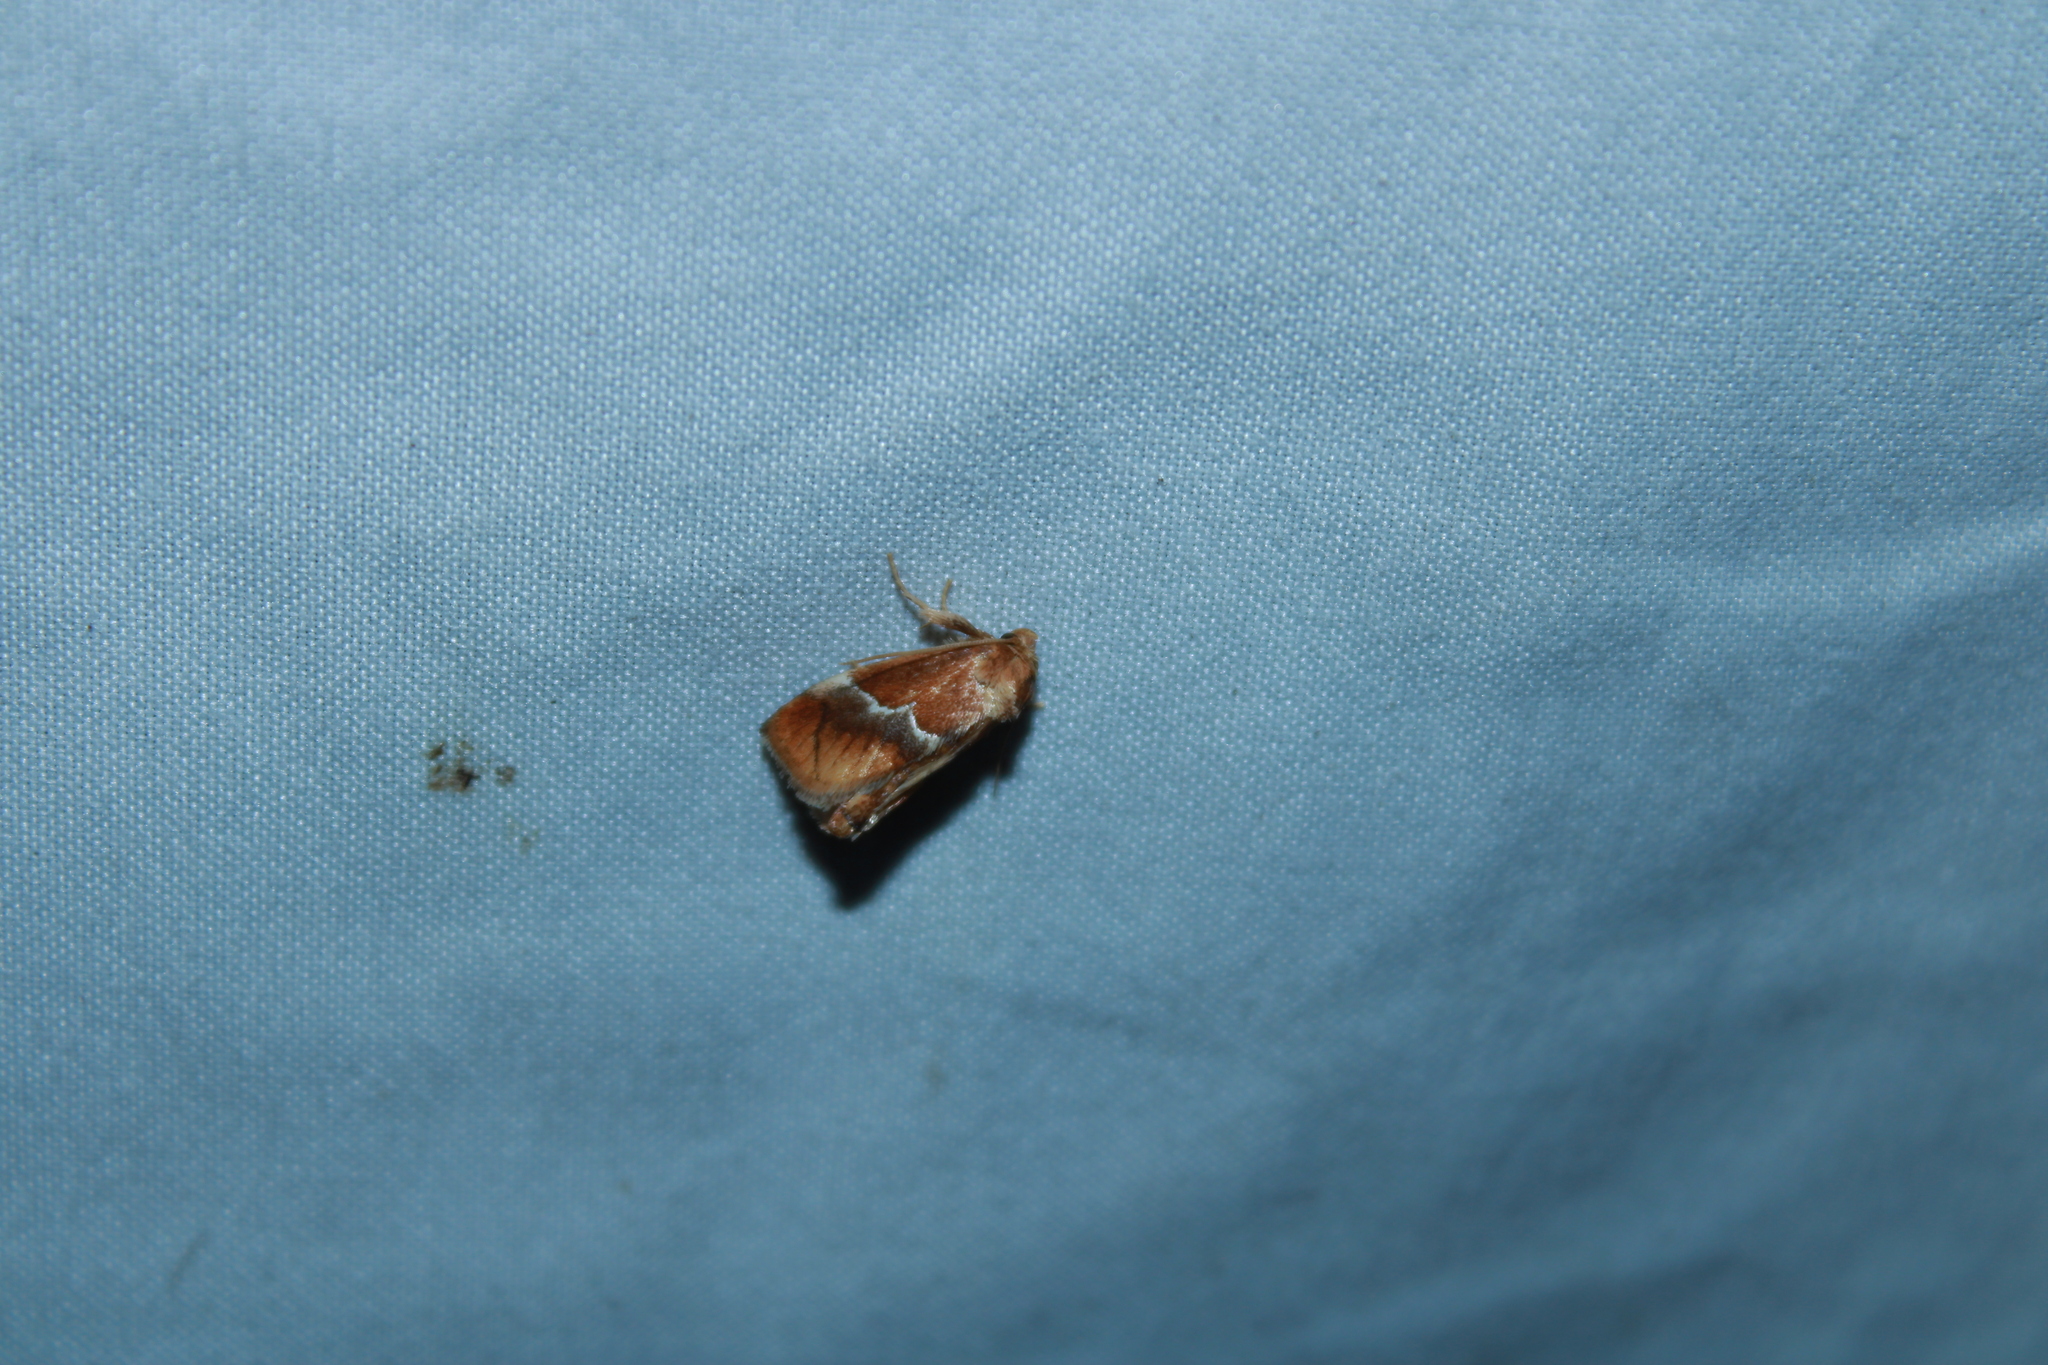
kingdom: Animalia
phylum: Arthropoda
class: Insecta
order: Lepidoptera
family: Limacodidae
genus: Lithacodes
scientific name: Lithacodes fasciola
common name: Yellow-shouldered slug moth
